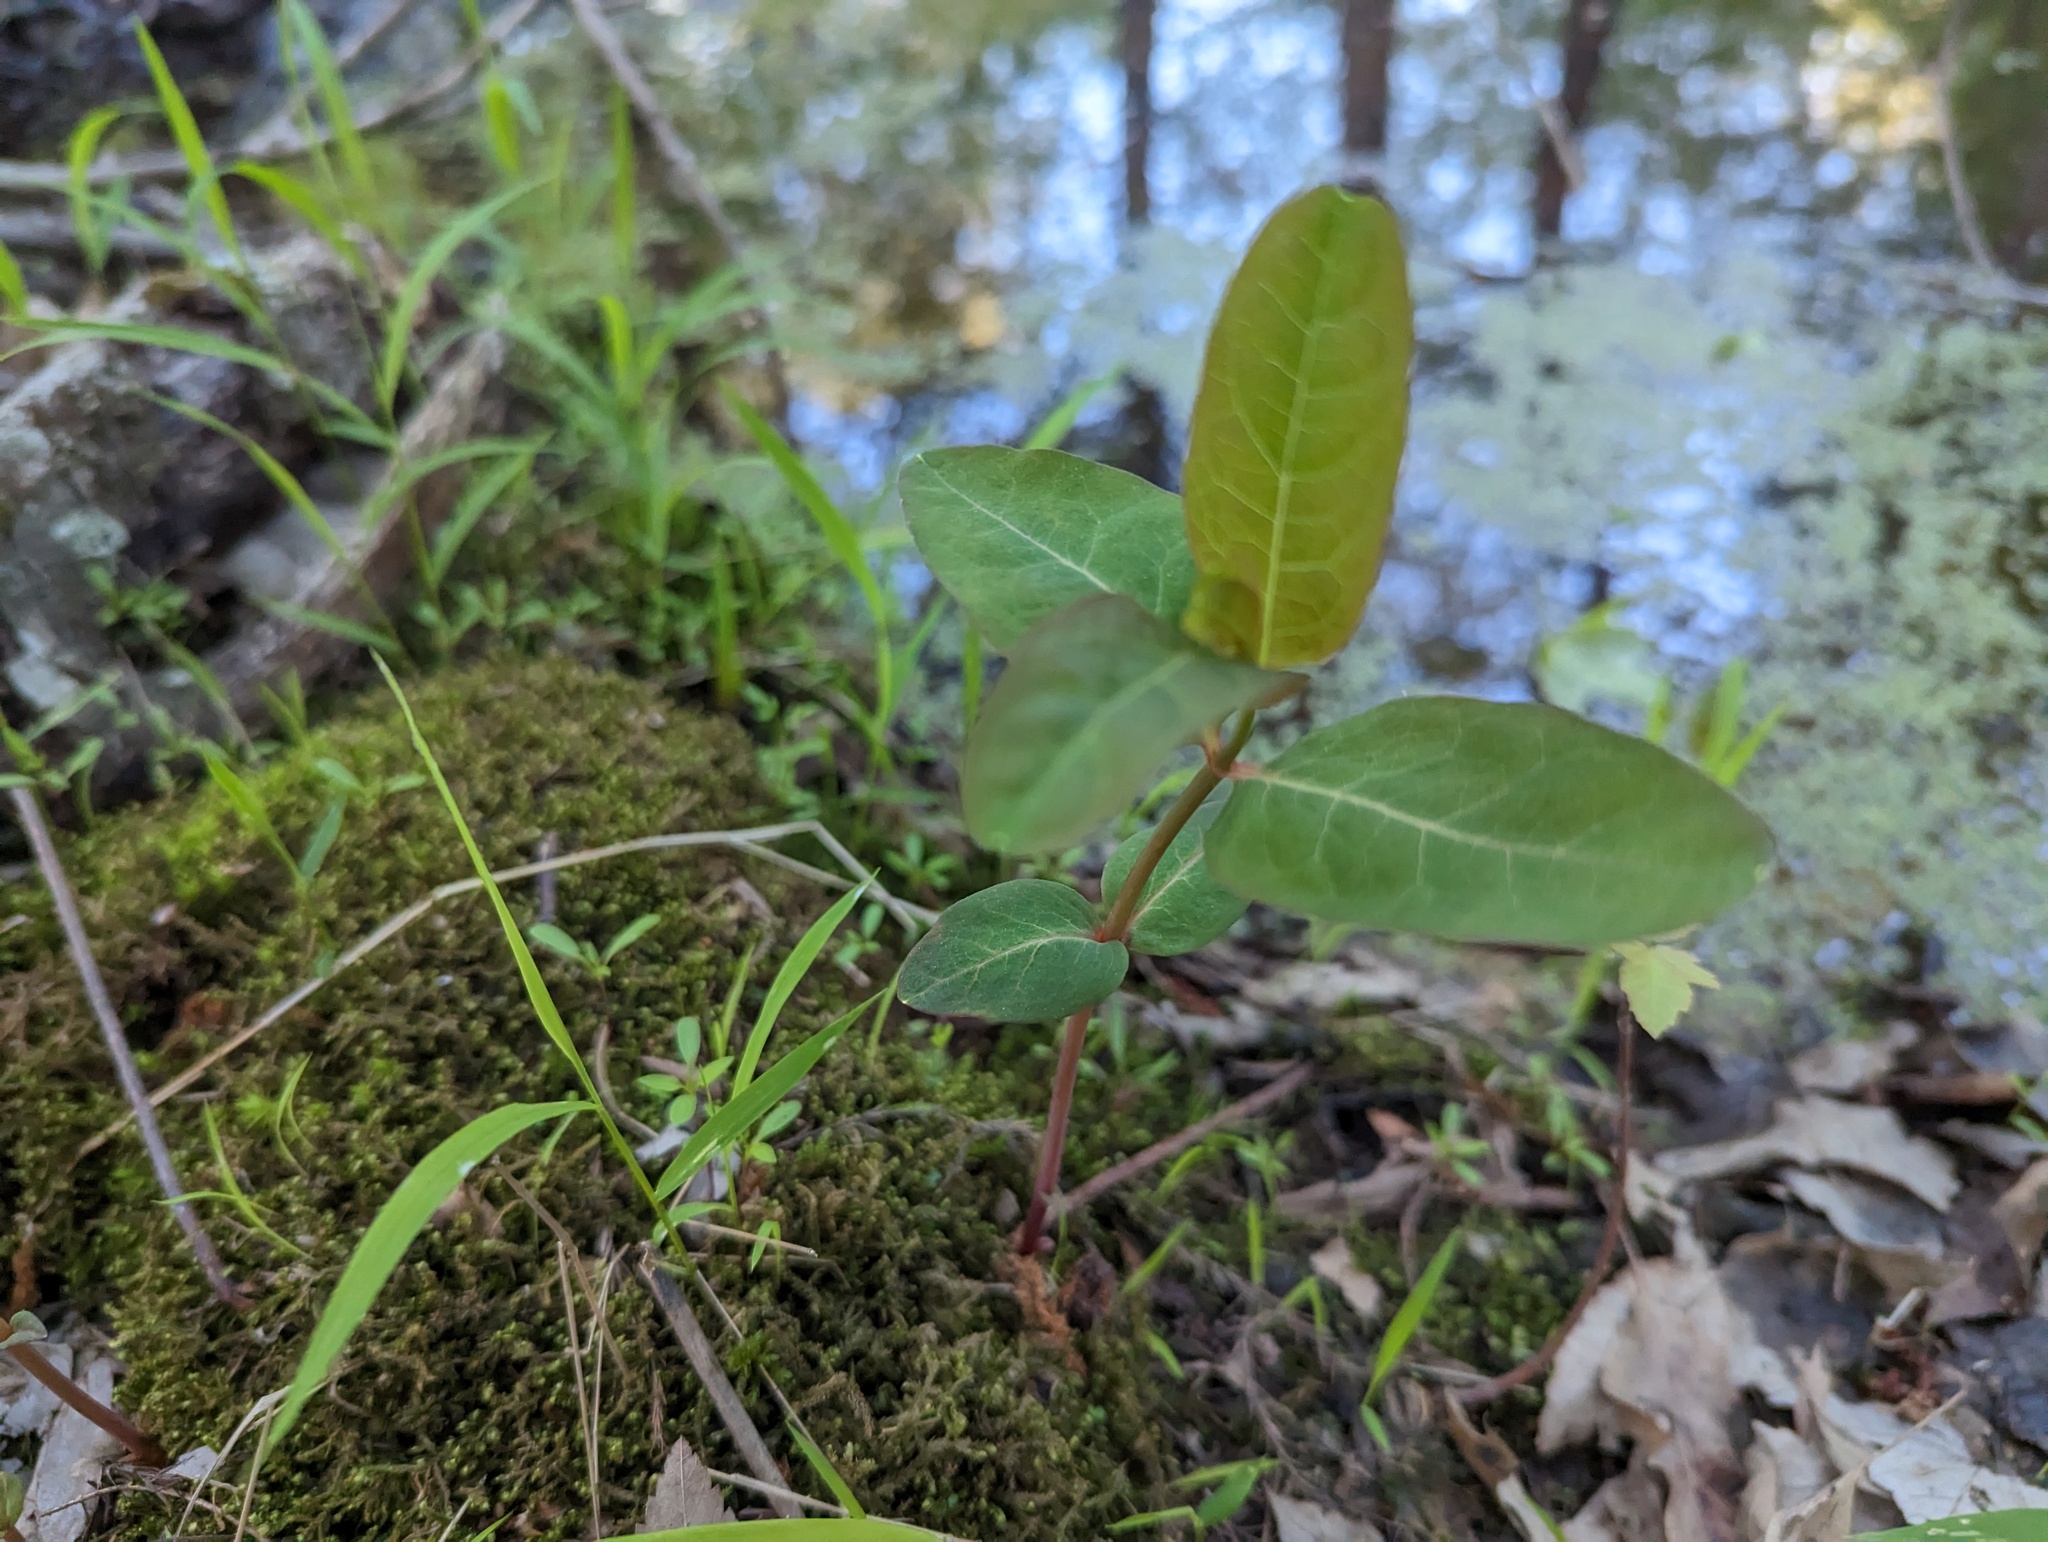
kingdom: Plantae
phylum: Tracheophyta
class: Magnoliopsida
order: Malpighiales
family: Hypericaceae
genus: Triadenum
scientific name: Triadenum walteri
